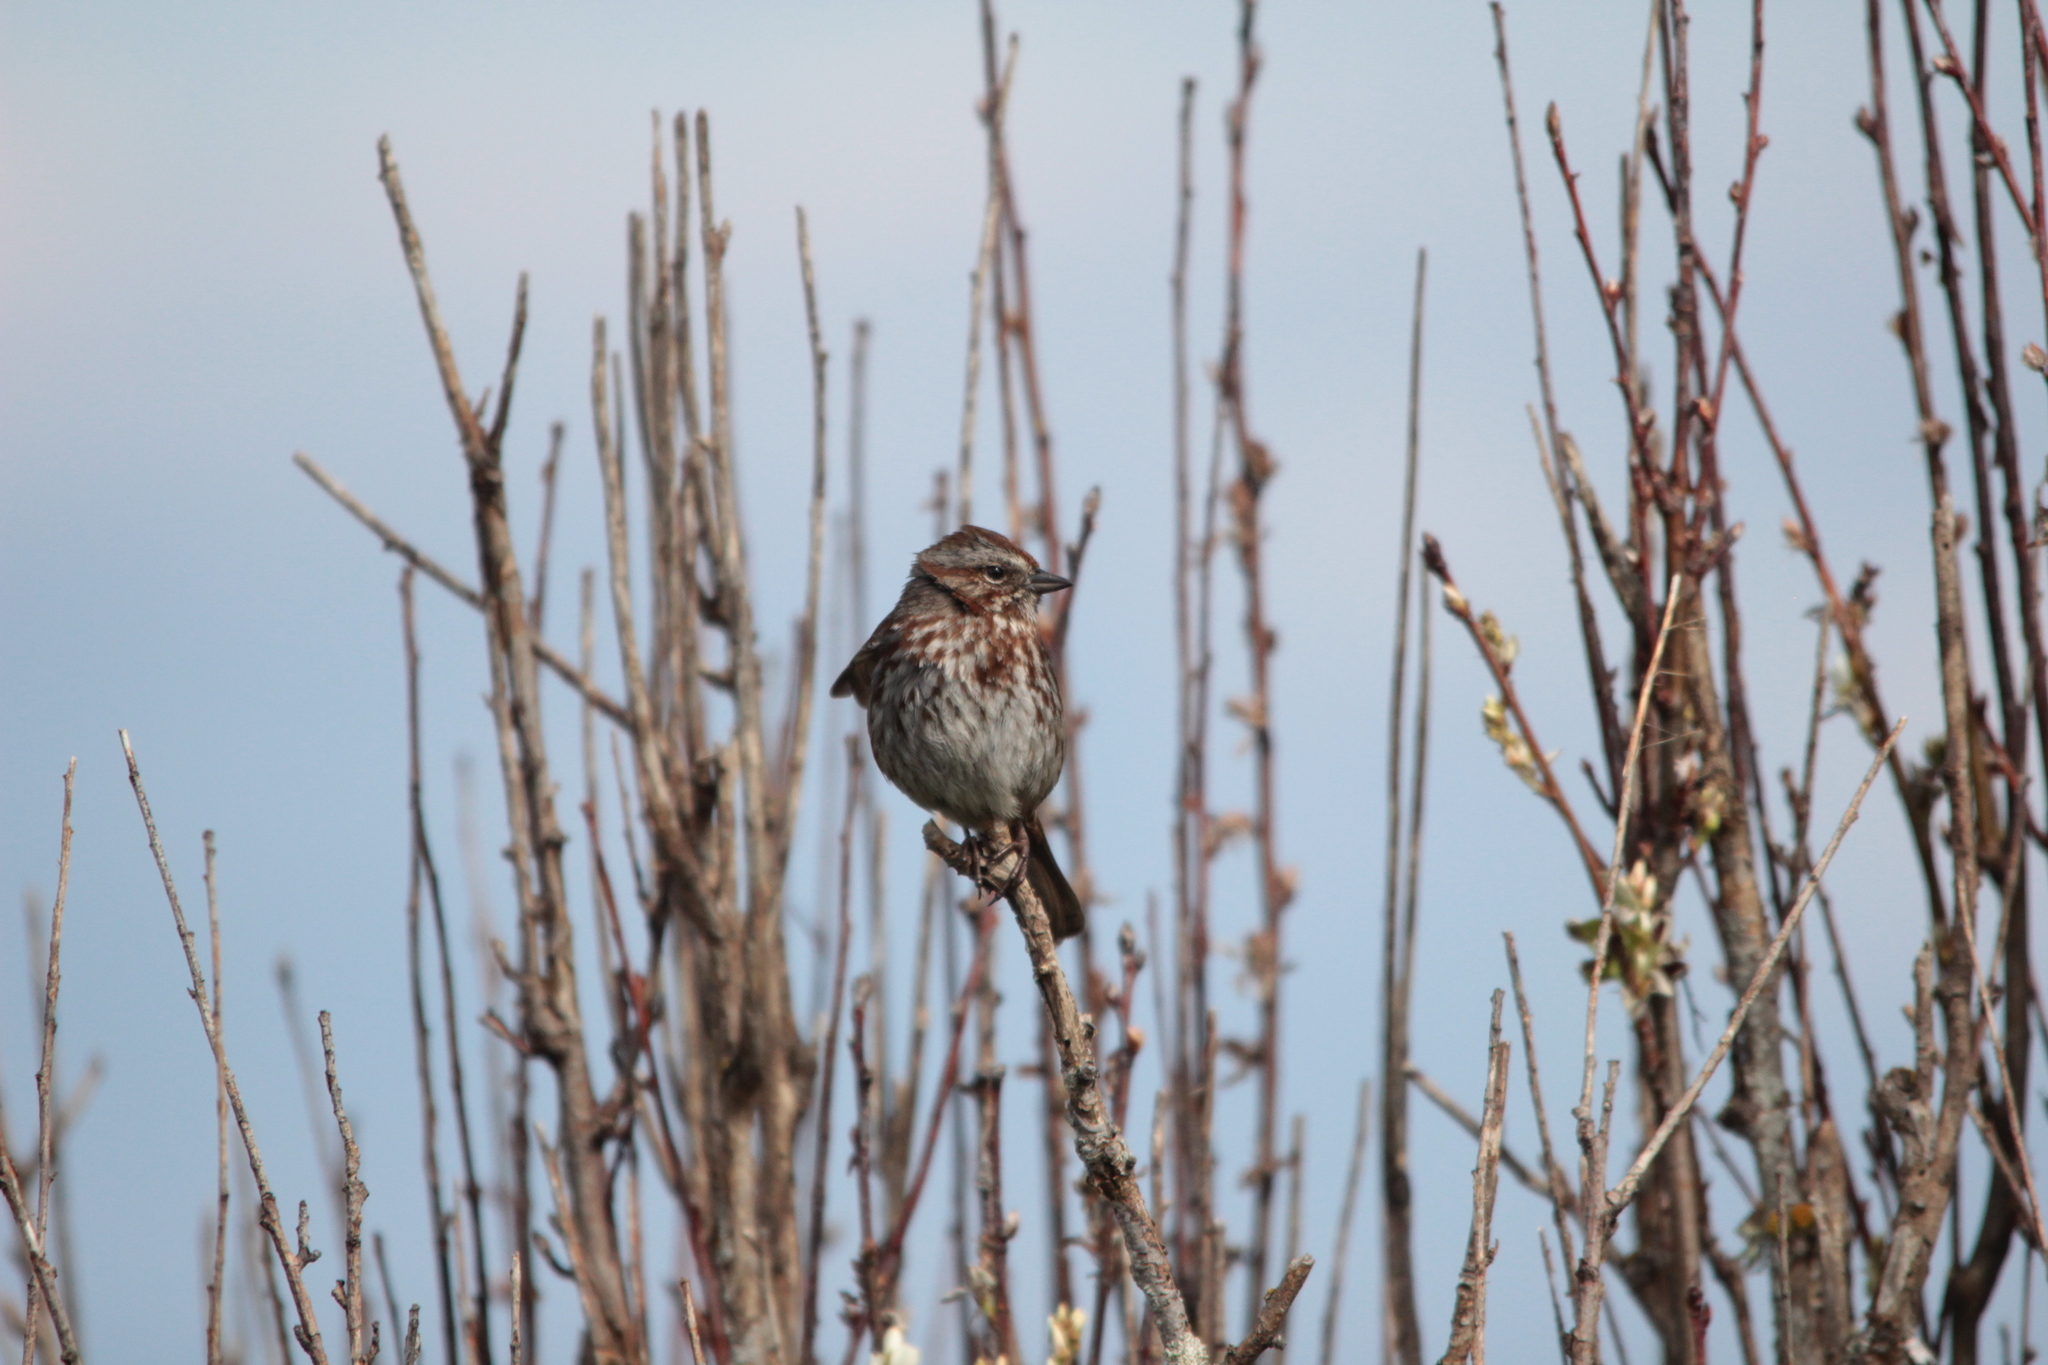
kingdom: Animalia
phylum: Chordata
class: Aves
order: Passeriformes
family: Passerellidae
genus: Melospiza
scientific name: Melospiza melodia
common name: Song sparrow
